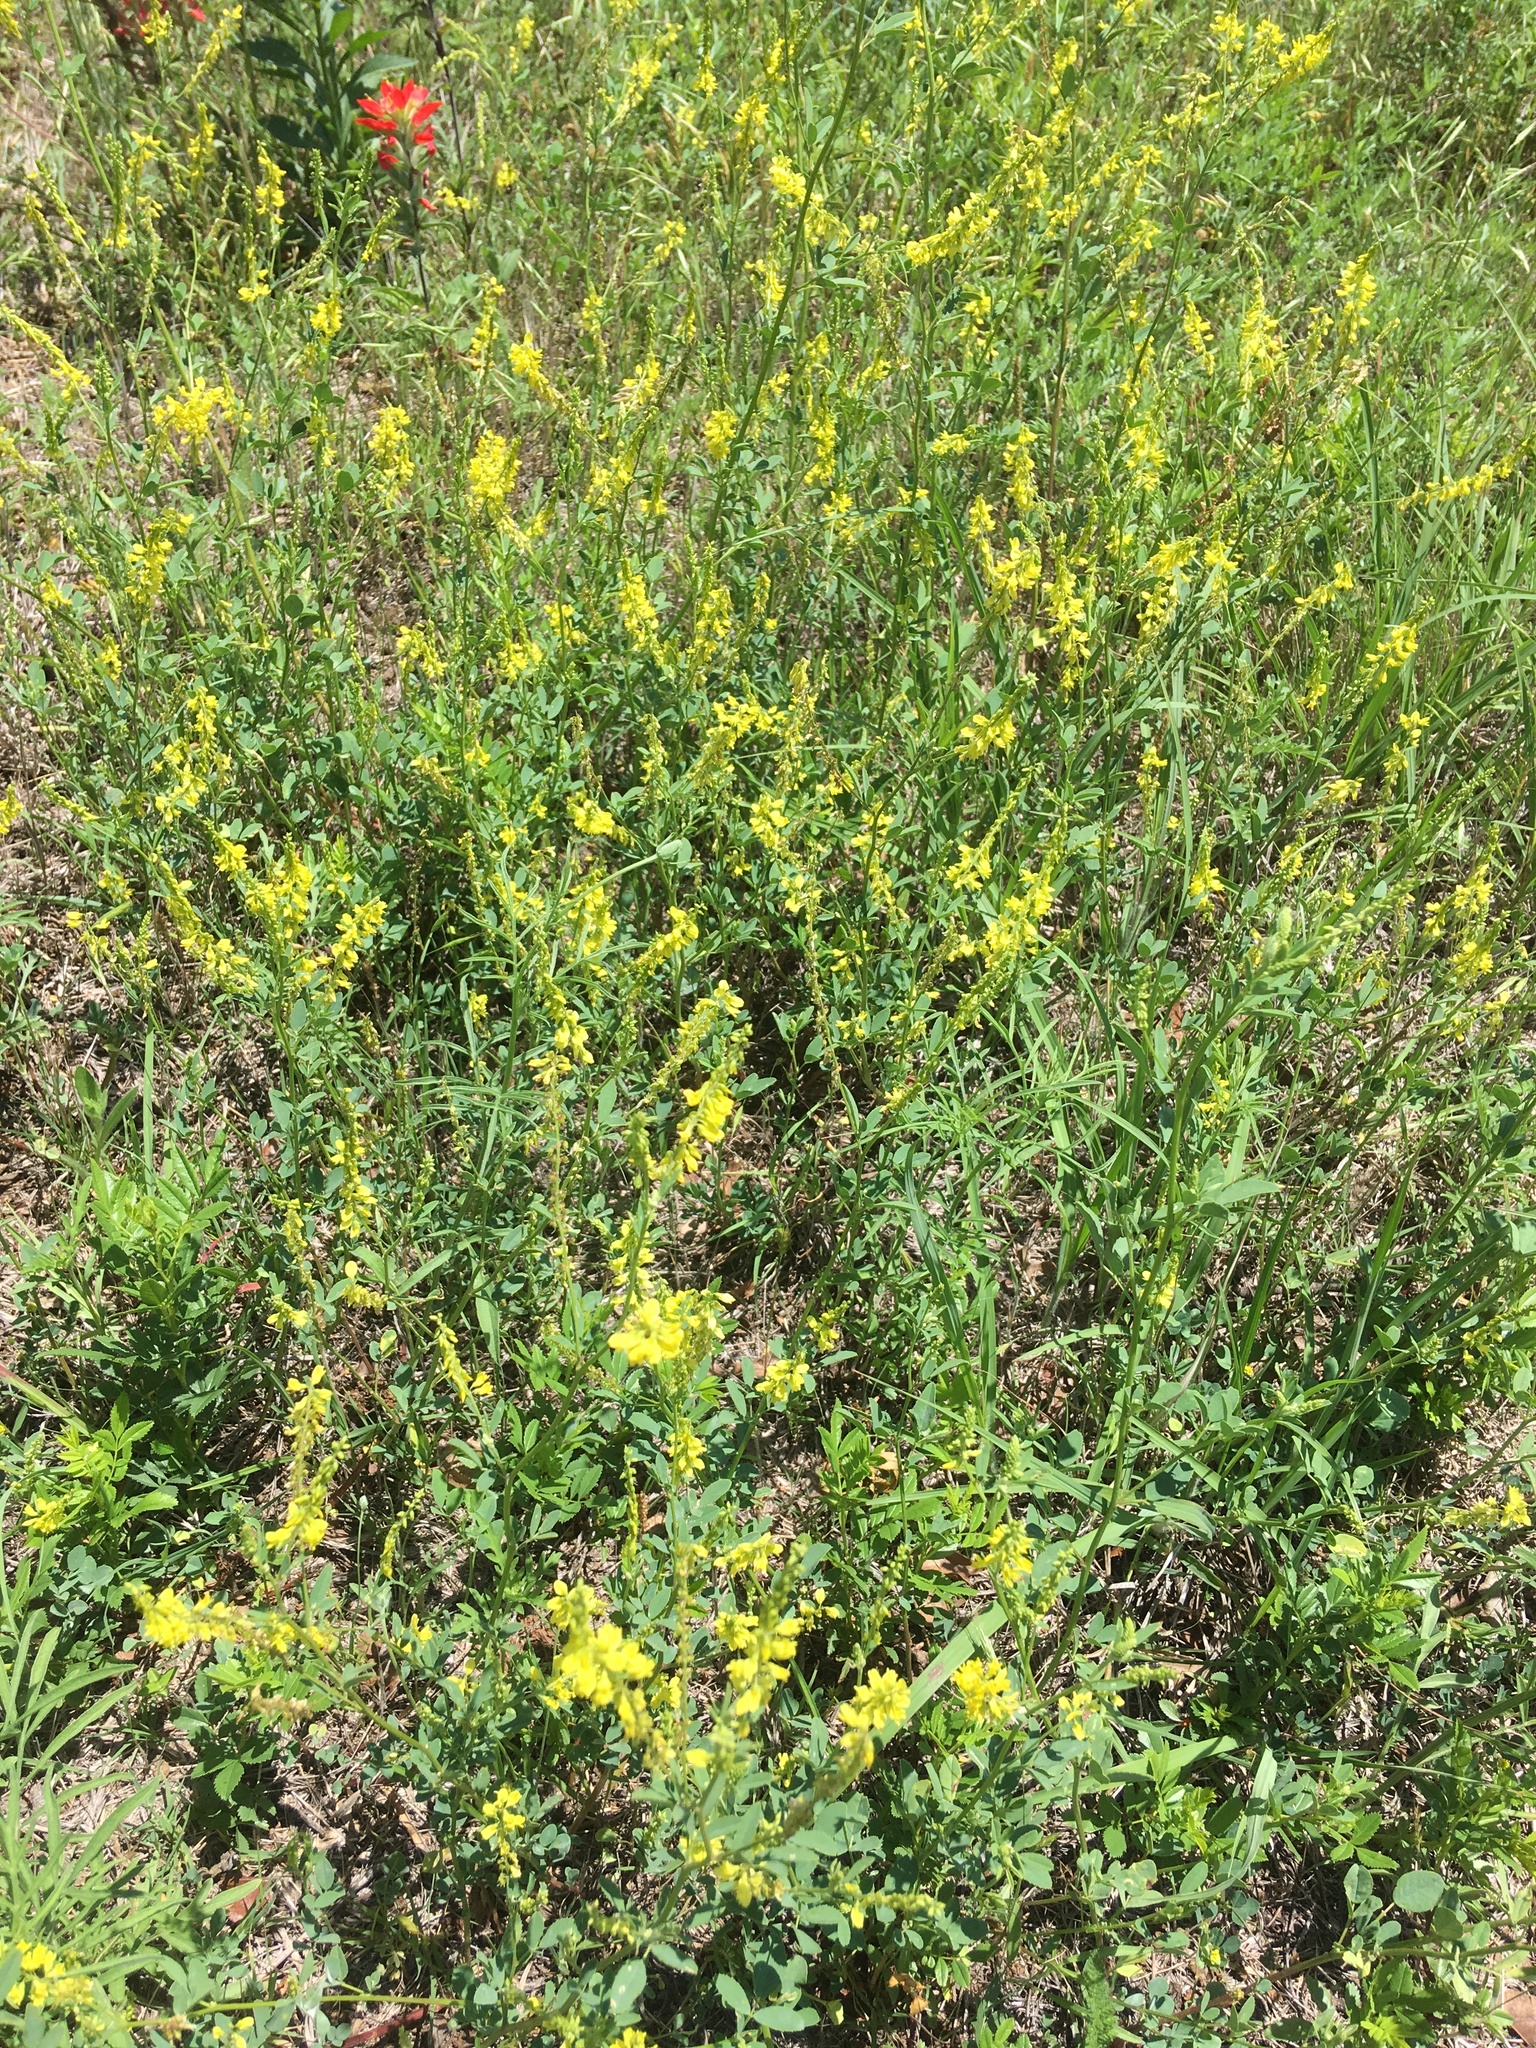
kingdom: Plantae
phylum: Tracheophyta
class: Magnoliopsida
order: Fabales
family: Fabaceae
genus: Melilotus
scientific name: Melilotus officinalis
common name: Sweetclover
